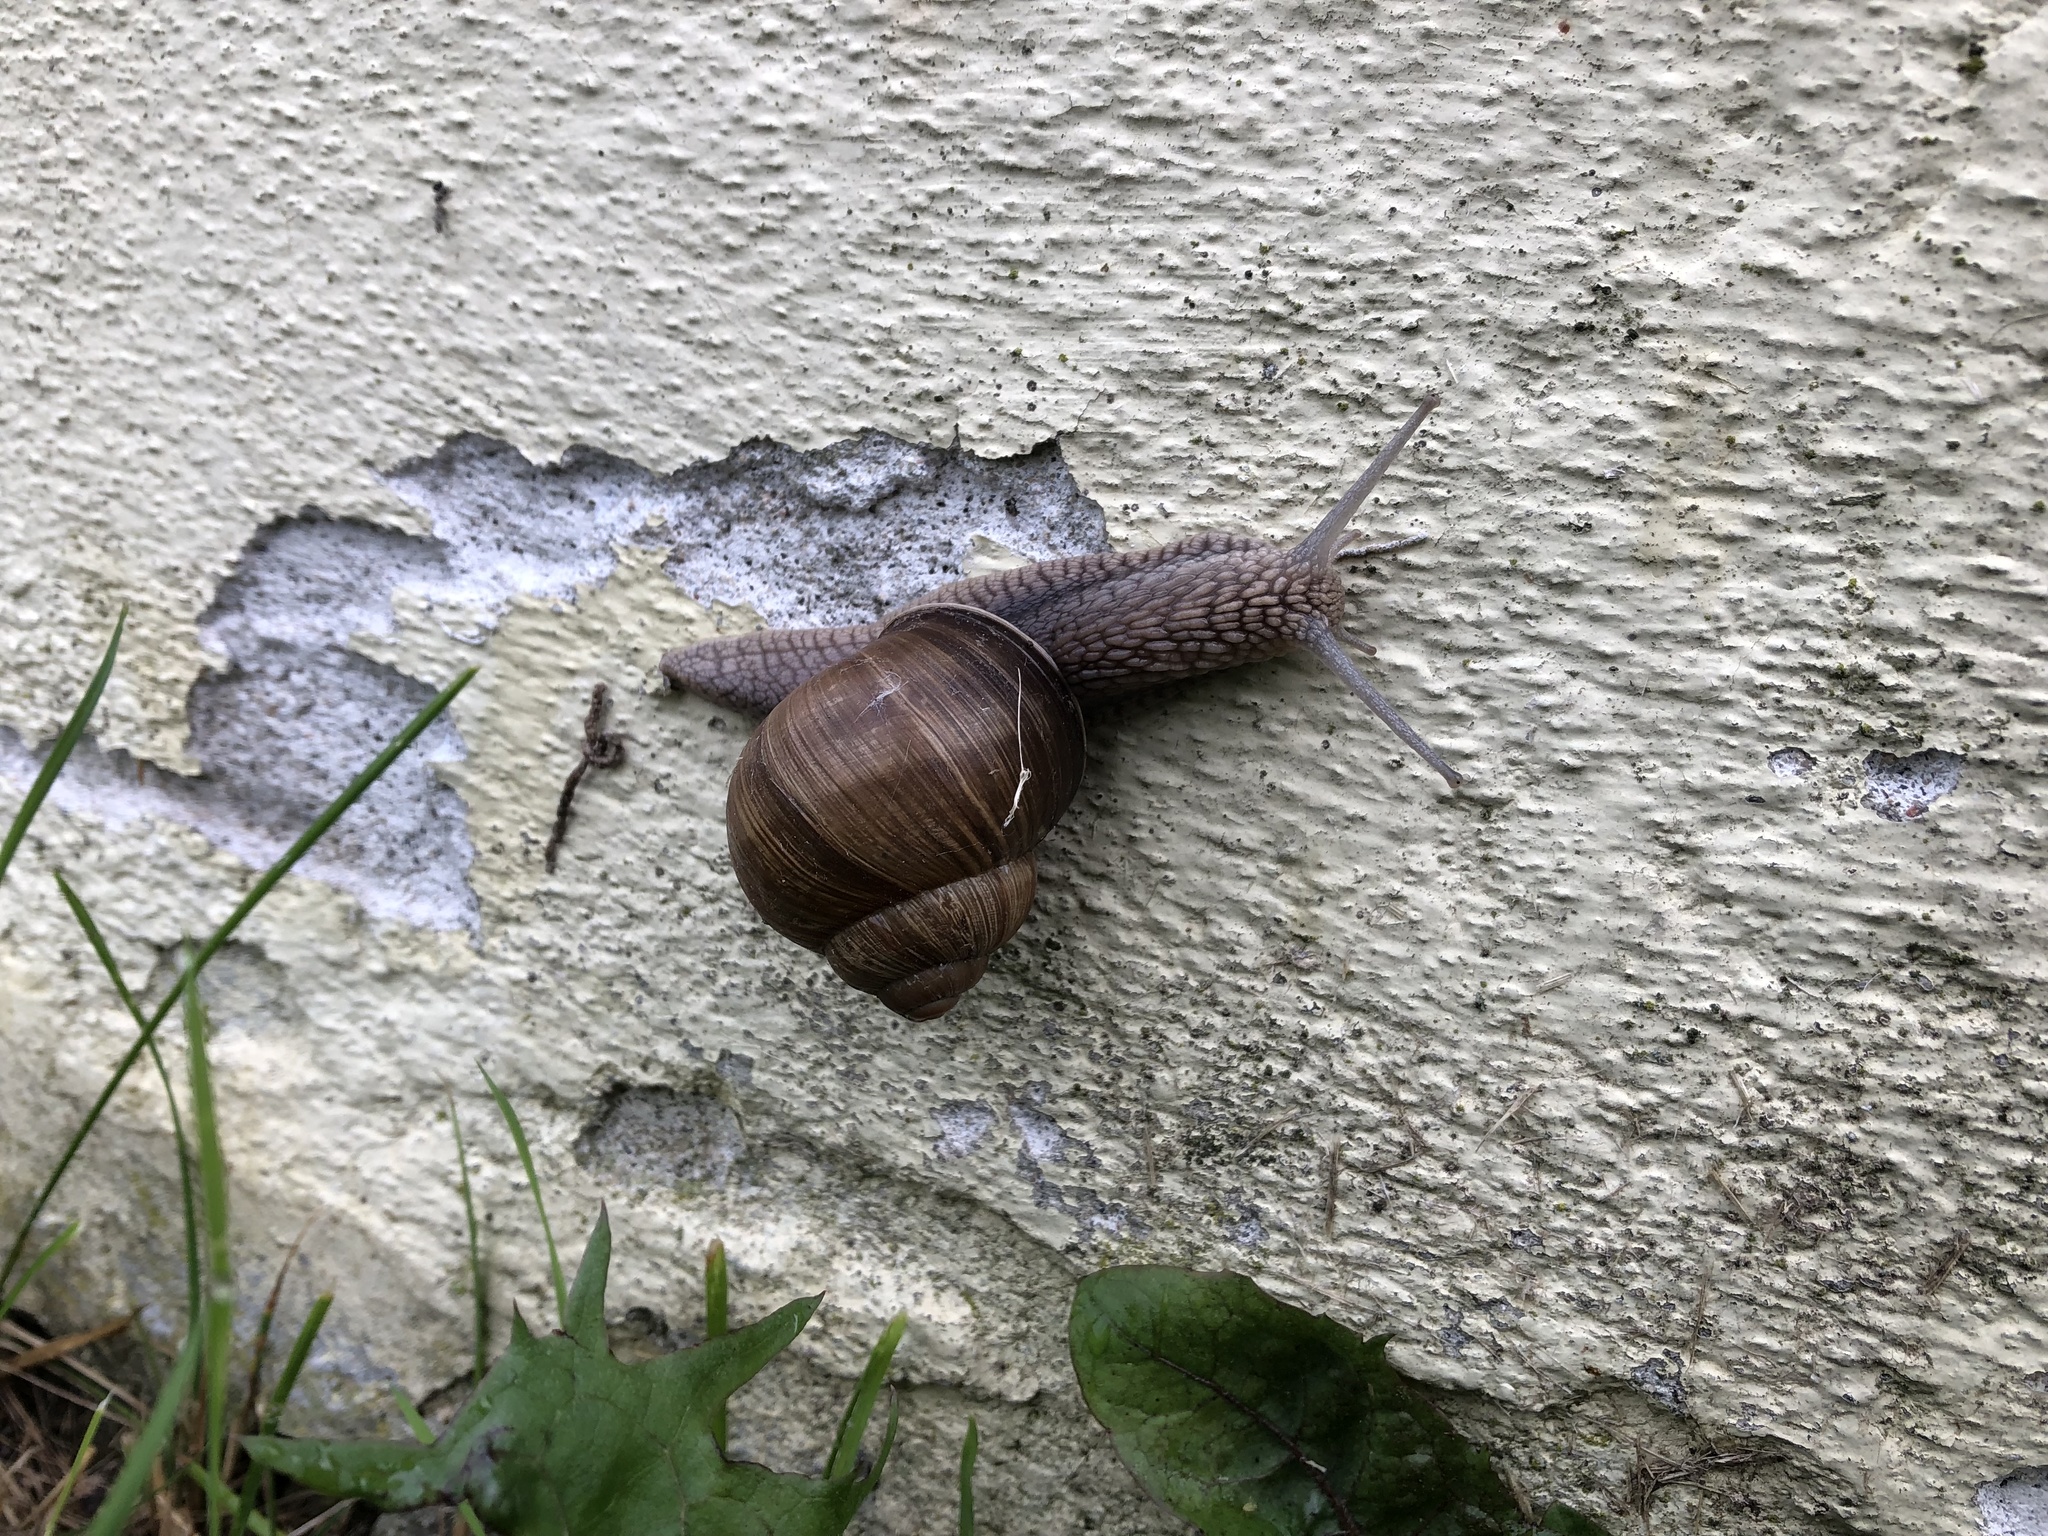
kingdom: Animalia
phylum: Mollusca
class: Gastropoda
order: Stylommatophora
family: Helicidae
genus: Helix
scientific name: Helix pomatia
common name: Roman snail
